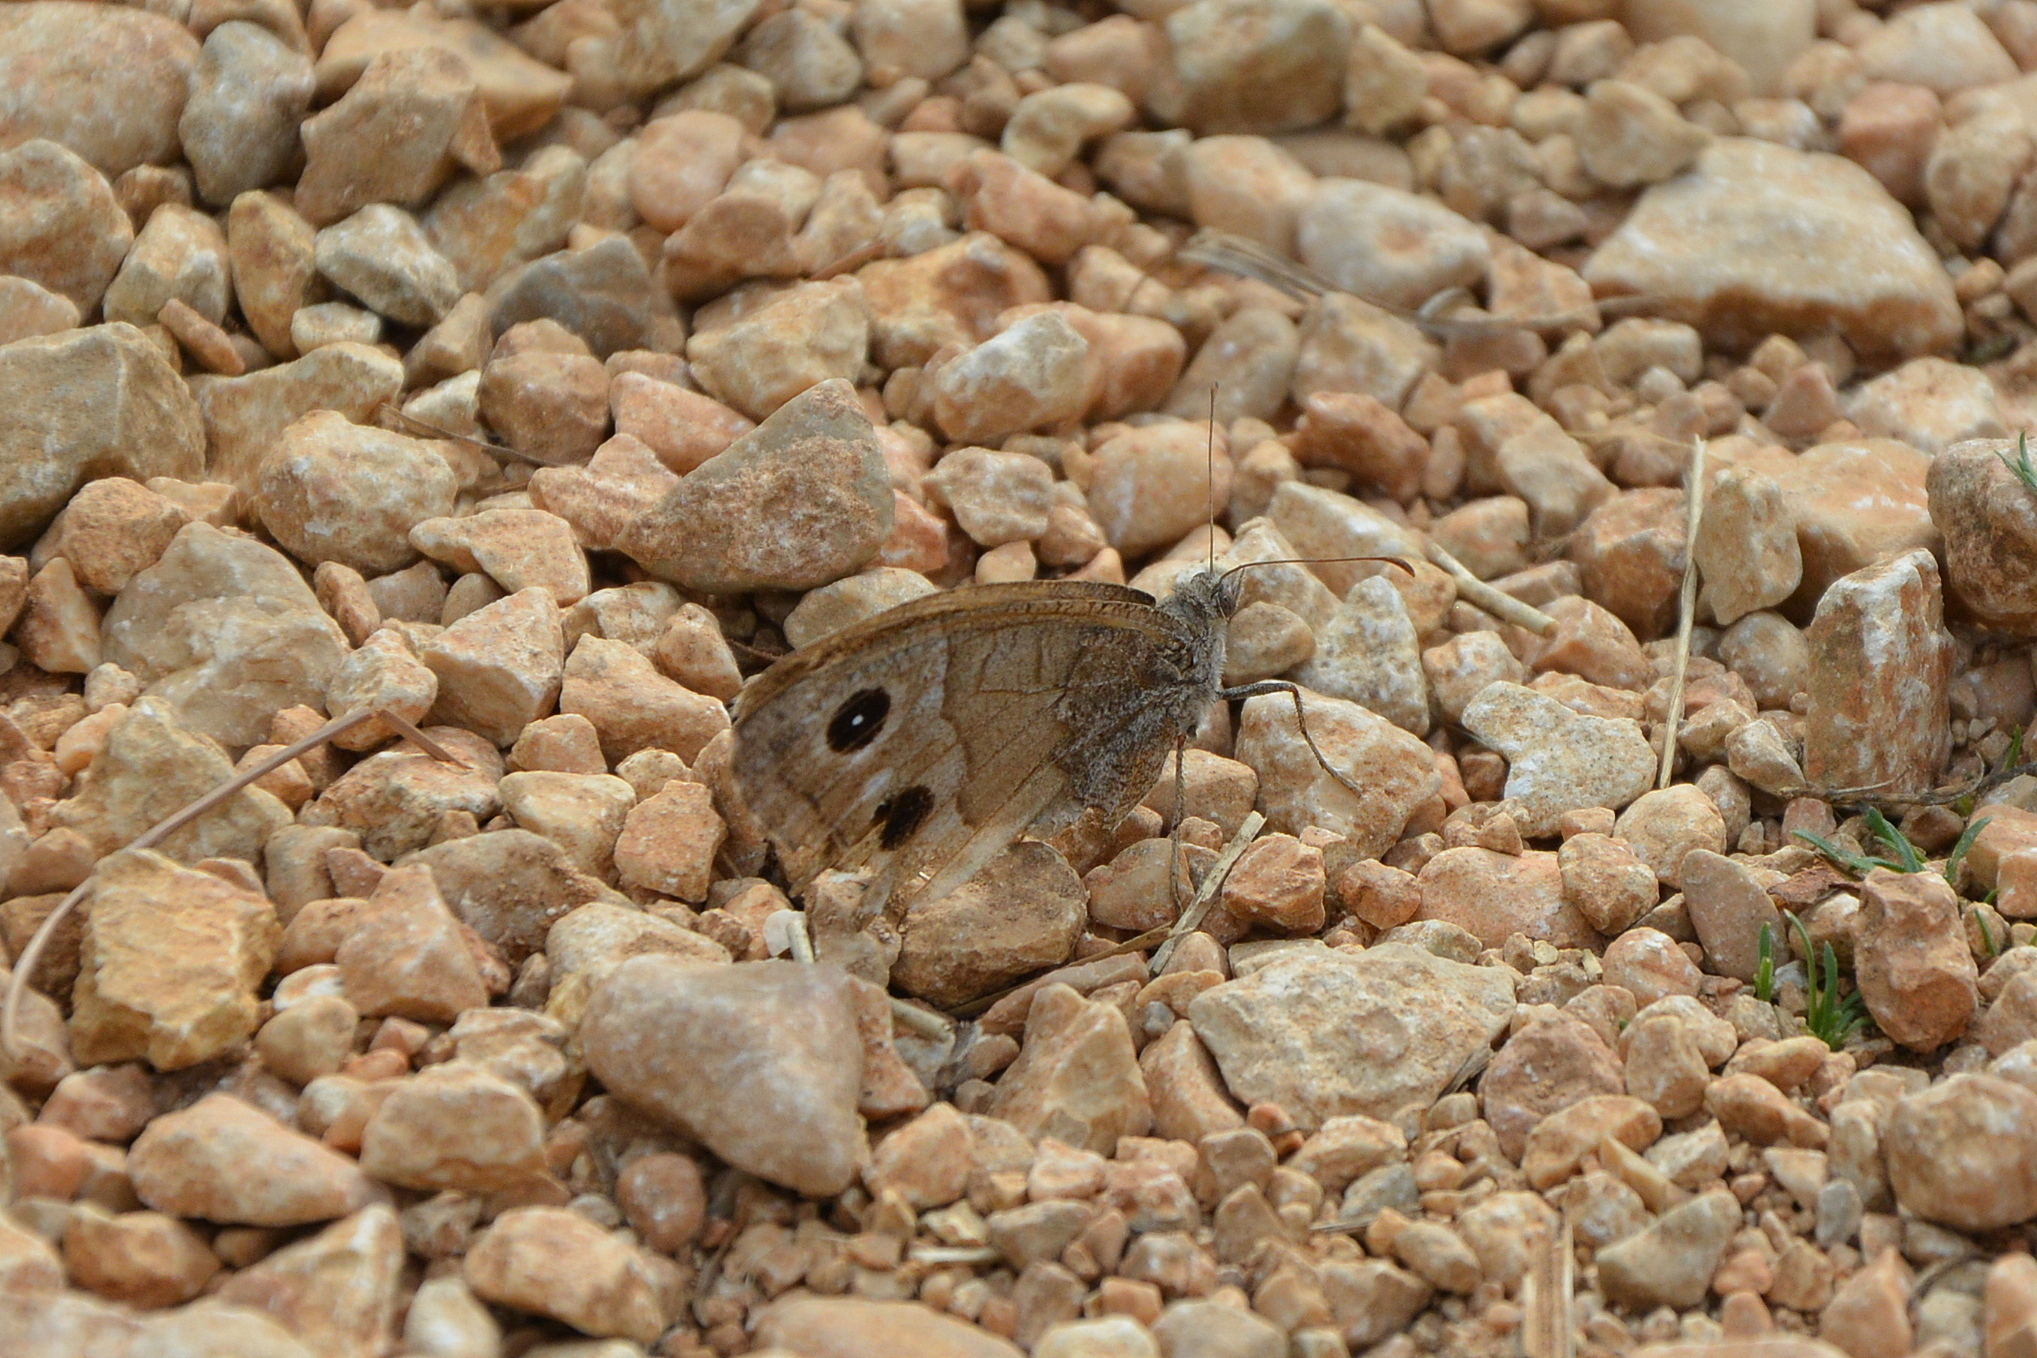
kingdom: Animalia
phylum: Arthropoda
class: Insecta
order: Lepidoptera
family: Nymphalidae
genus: Hipparchia
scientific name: Hipparchia statilinus
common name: Tree grayling
